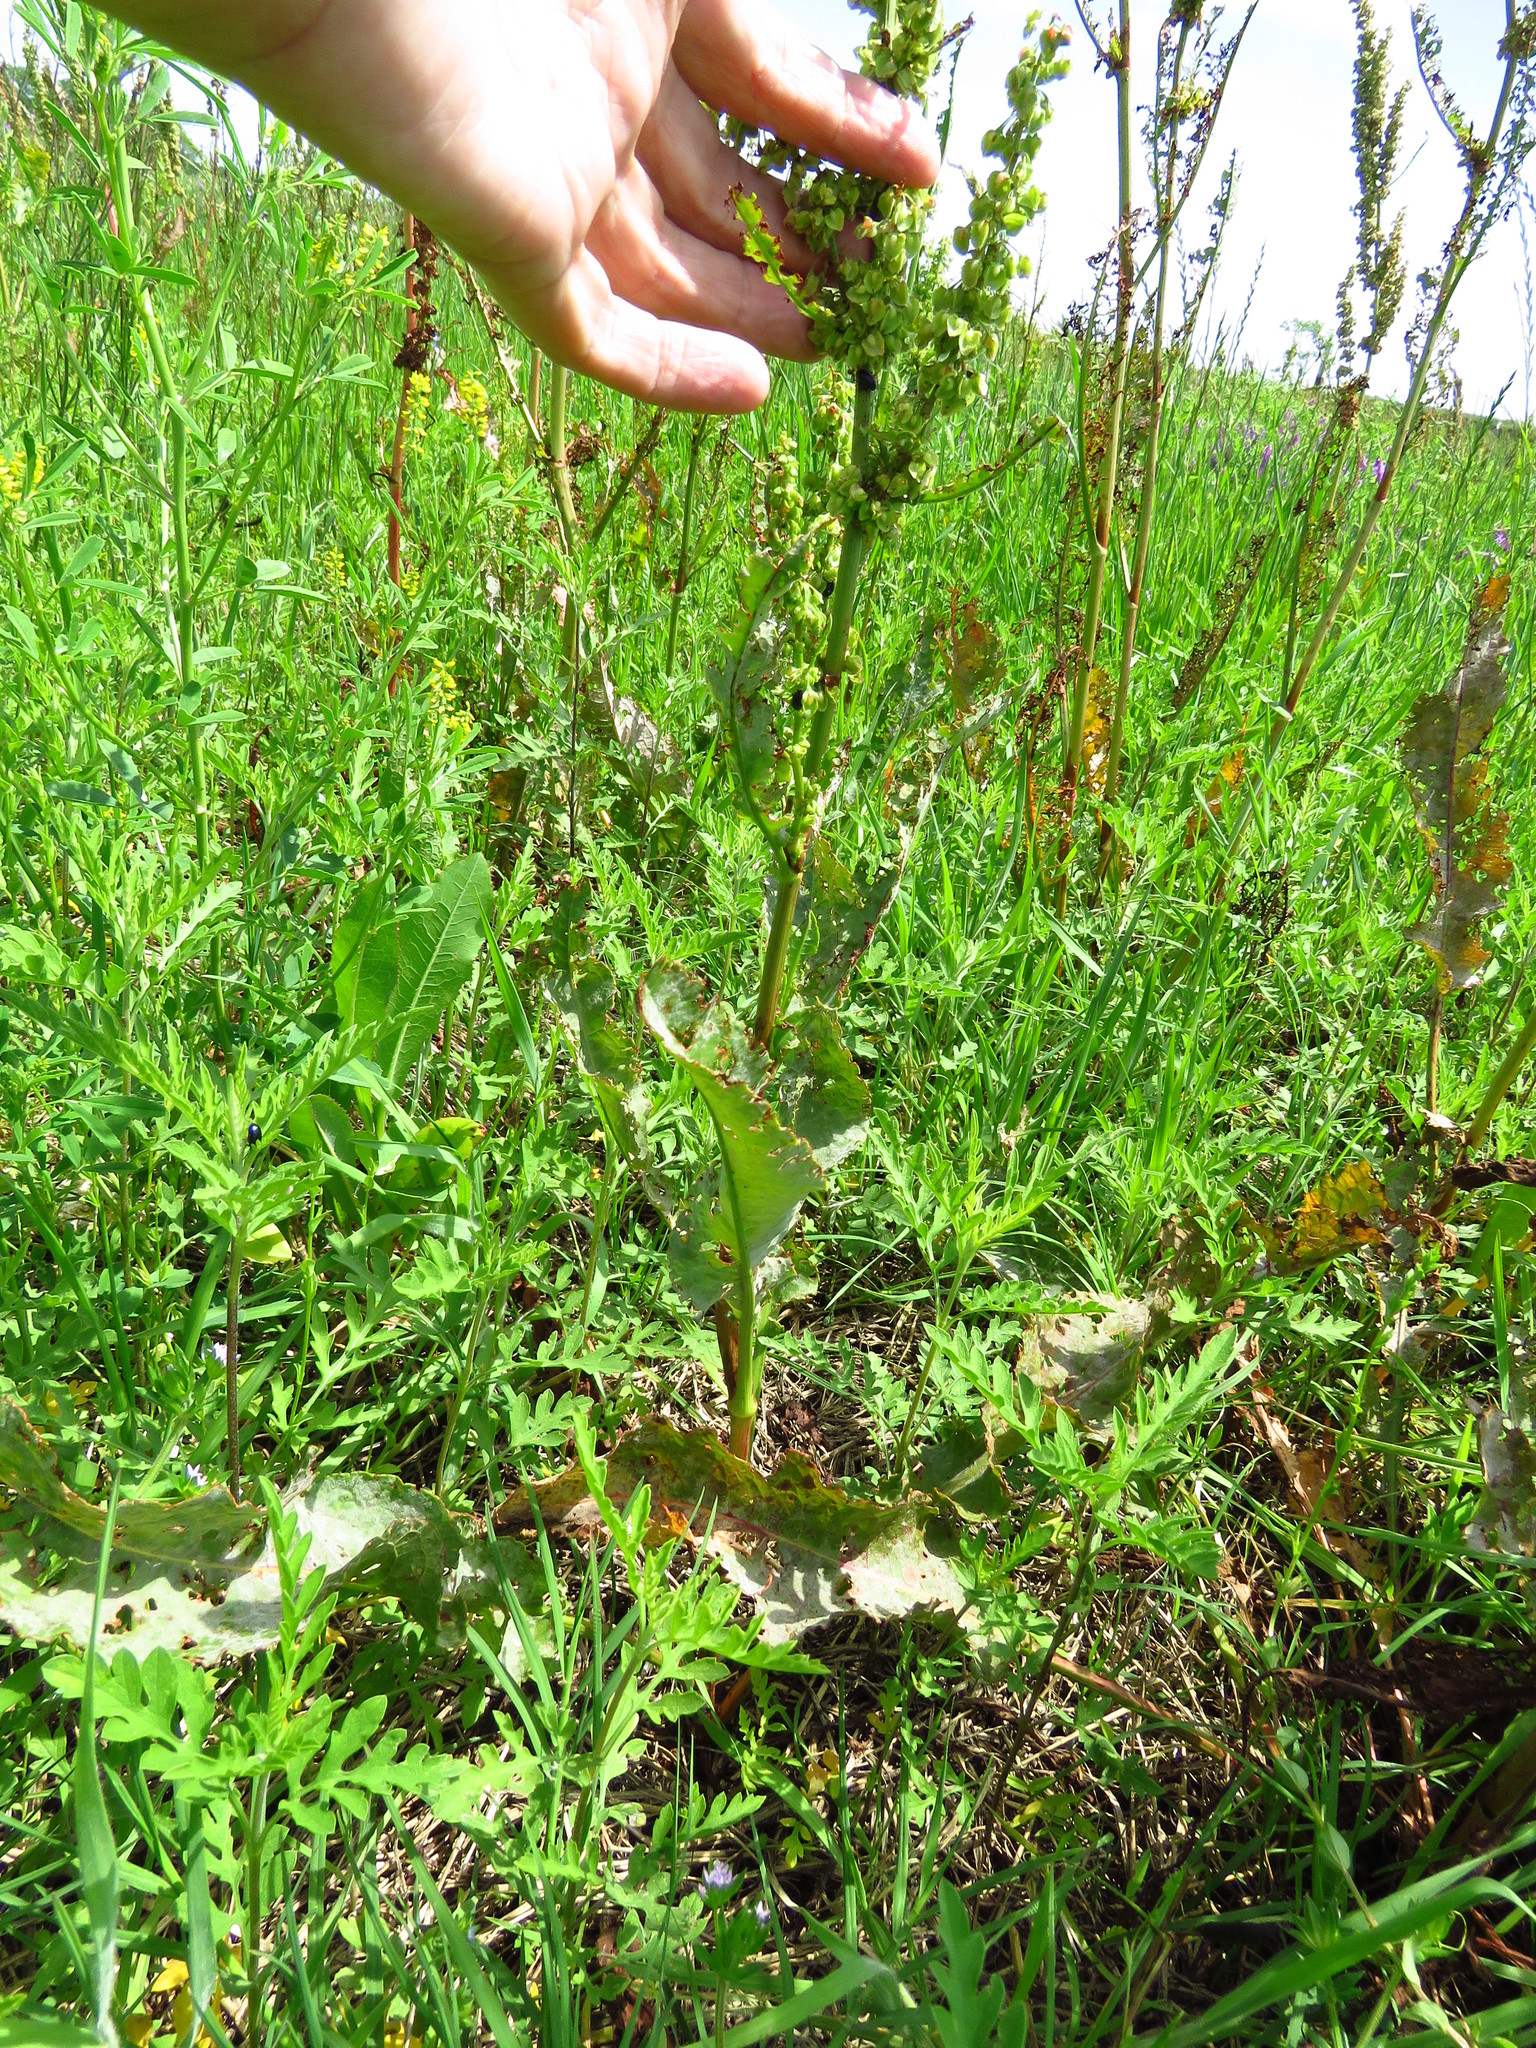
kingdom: Plantae
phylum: Tracheophyta
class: Magnoliopsida
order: Caryophyllales
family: Polygonaceae
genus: Rumex
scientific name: Rumex crispus
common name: Curled dock
